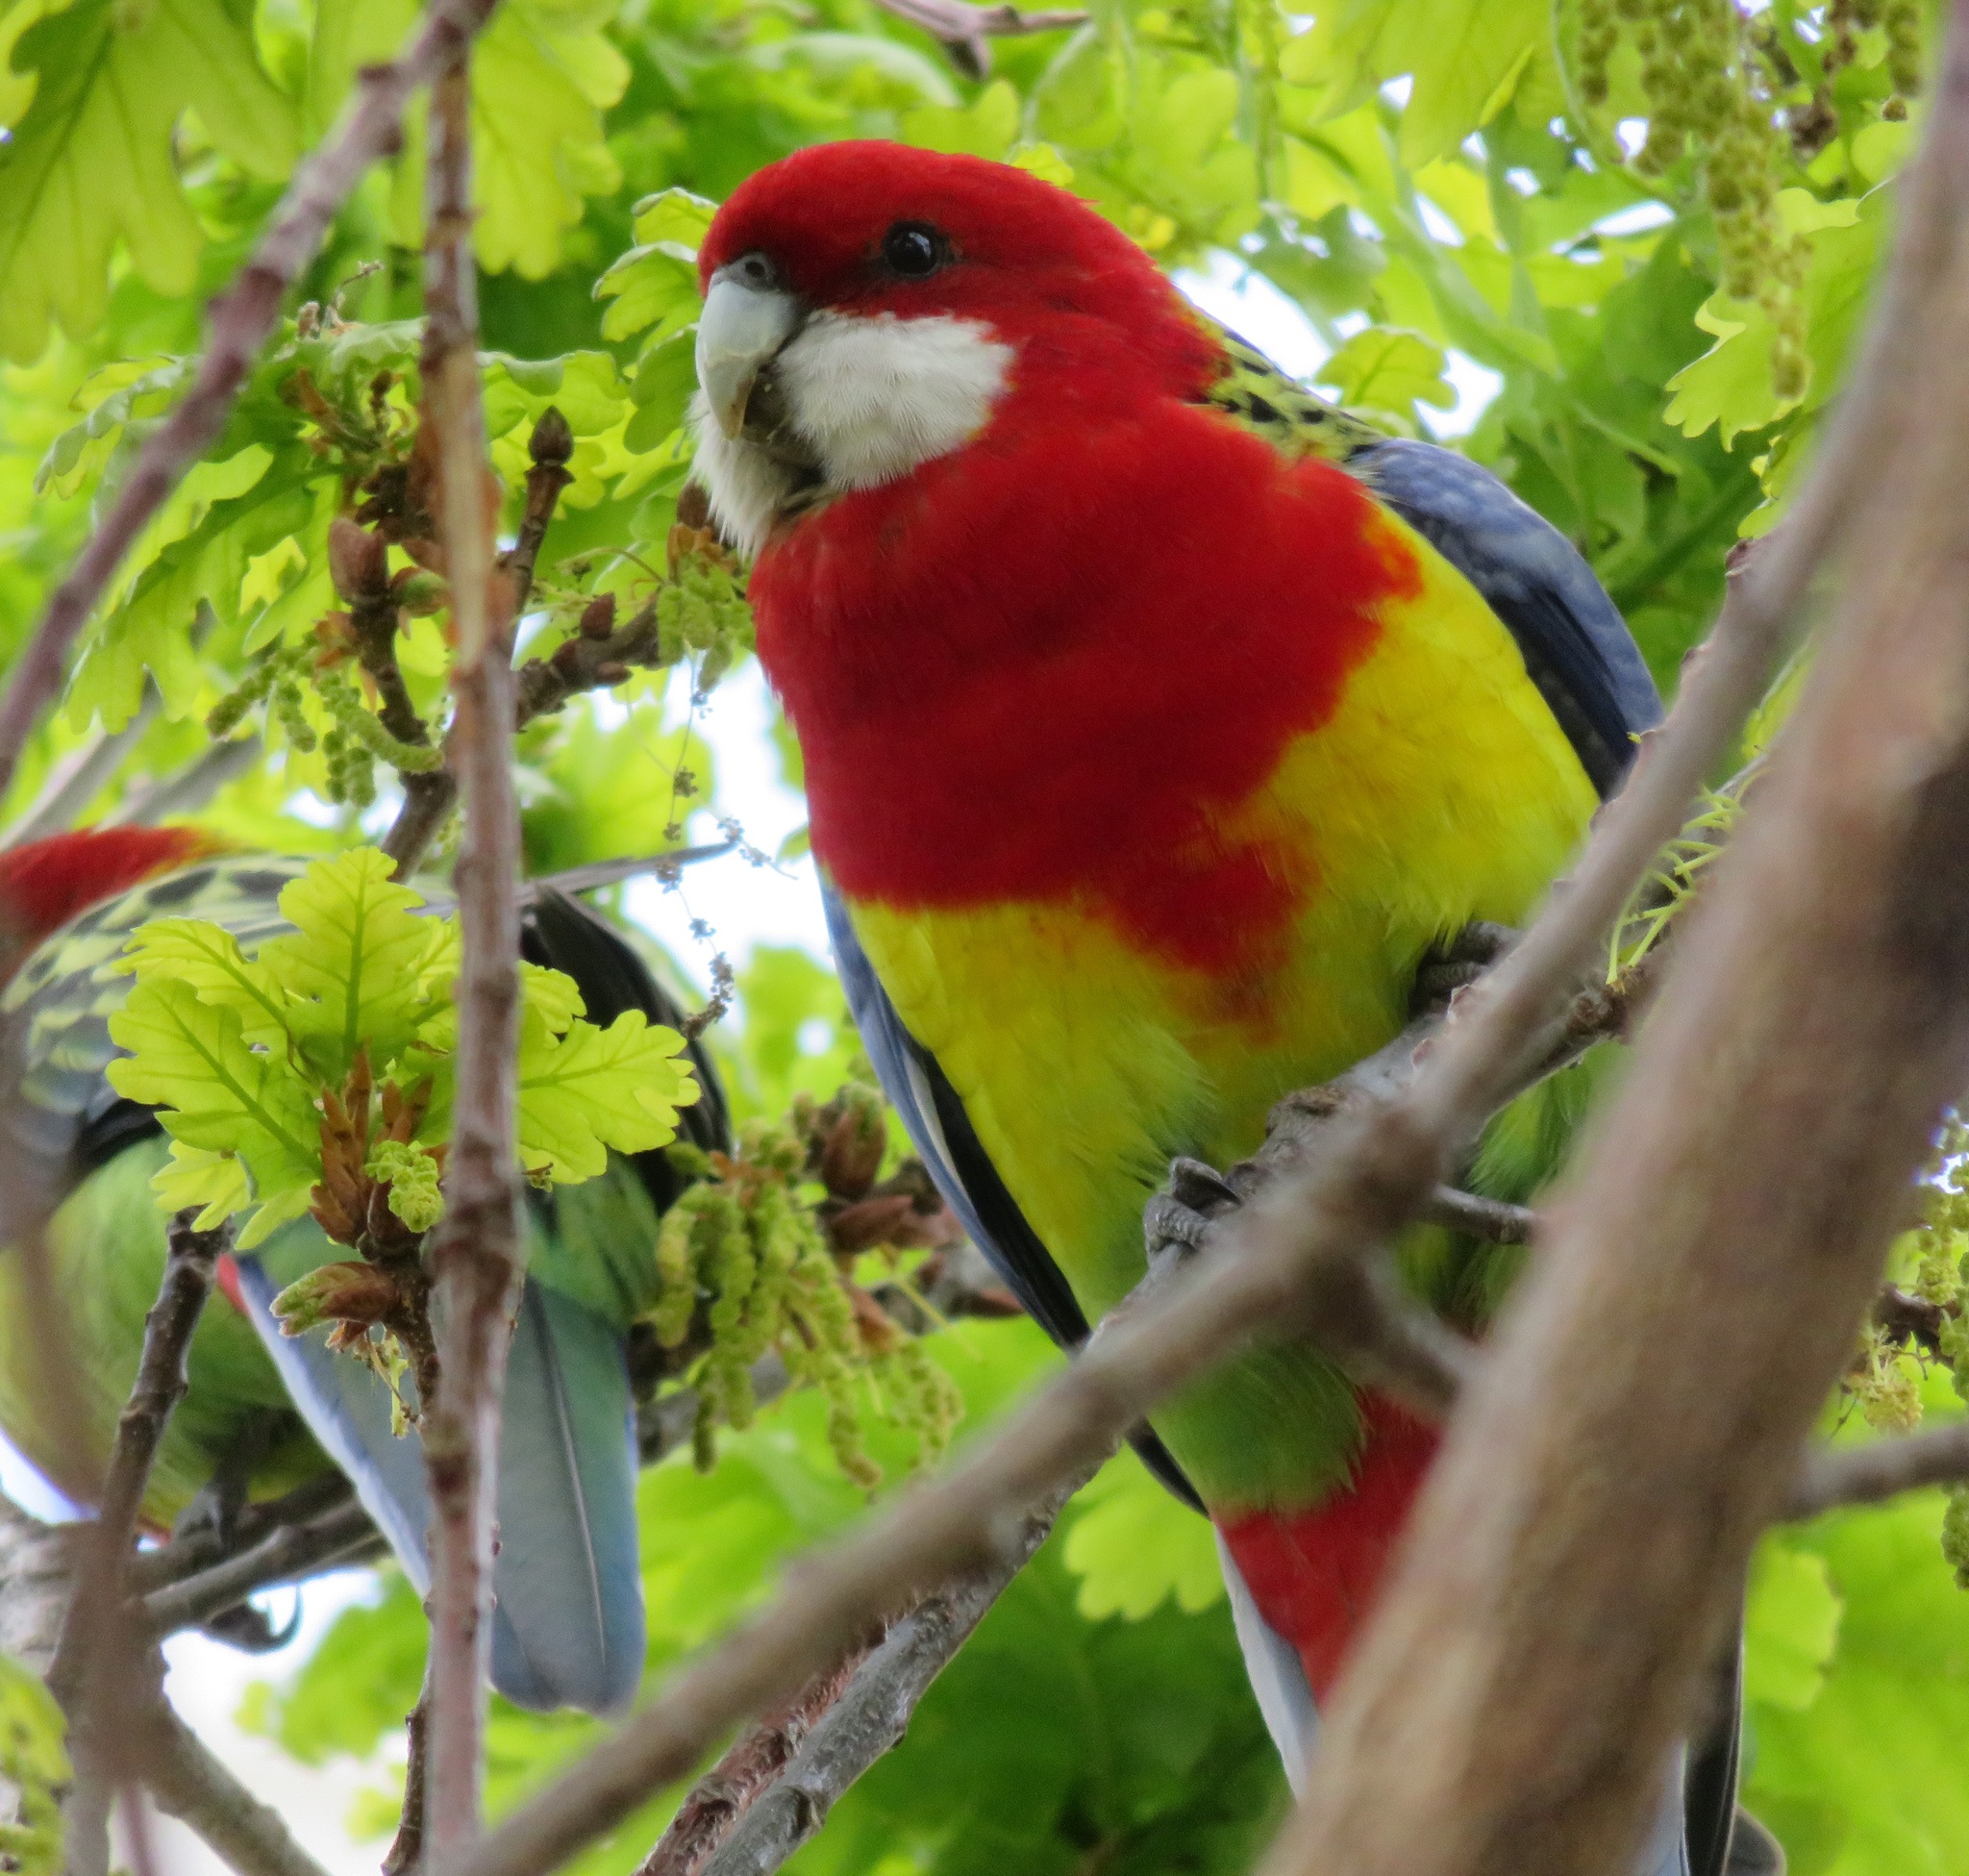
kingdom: Animalia
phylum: Chordata
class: Aves
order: Psittaciformes
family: Psittacidae
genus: Platycercus
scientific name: Platycercus eximius
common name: Eastern rosella
